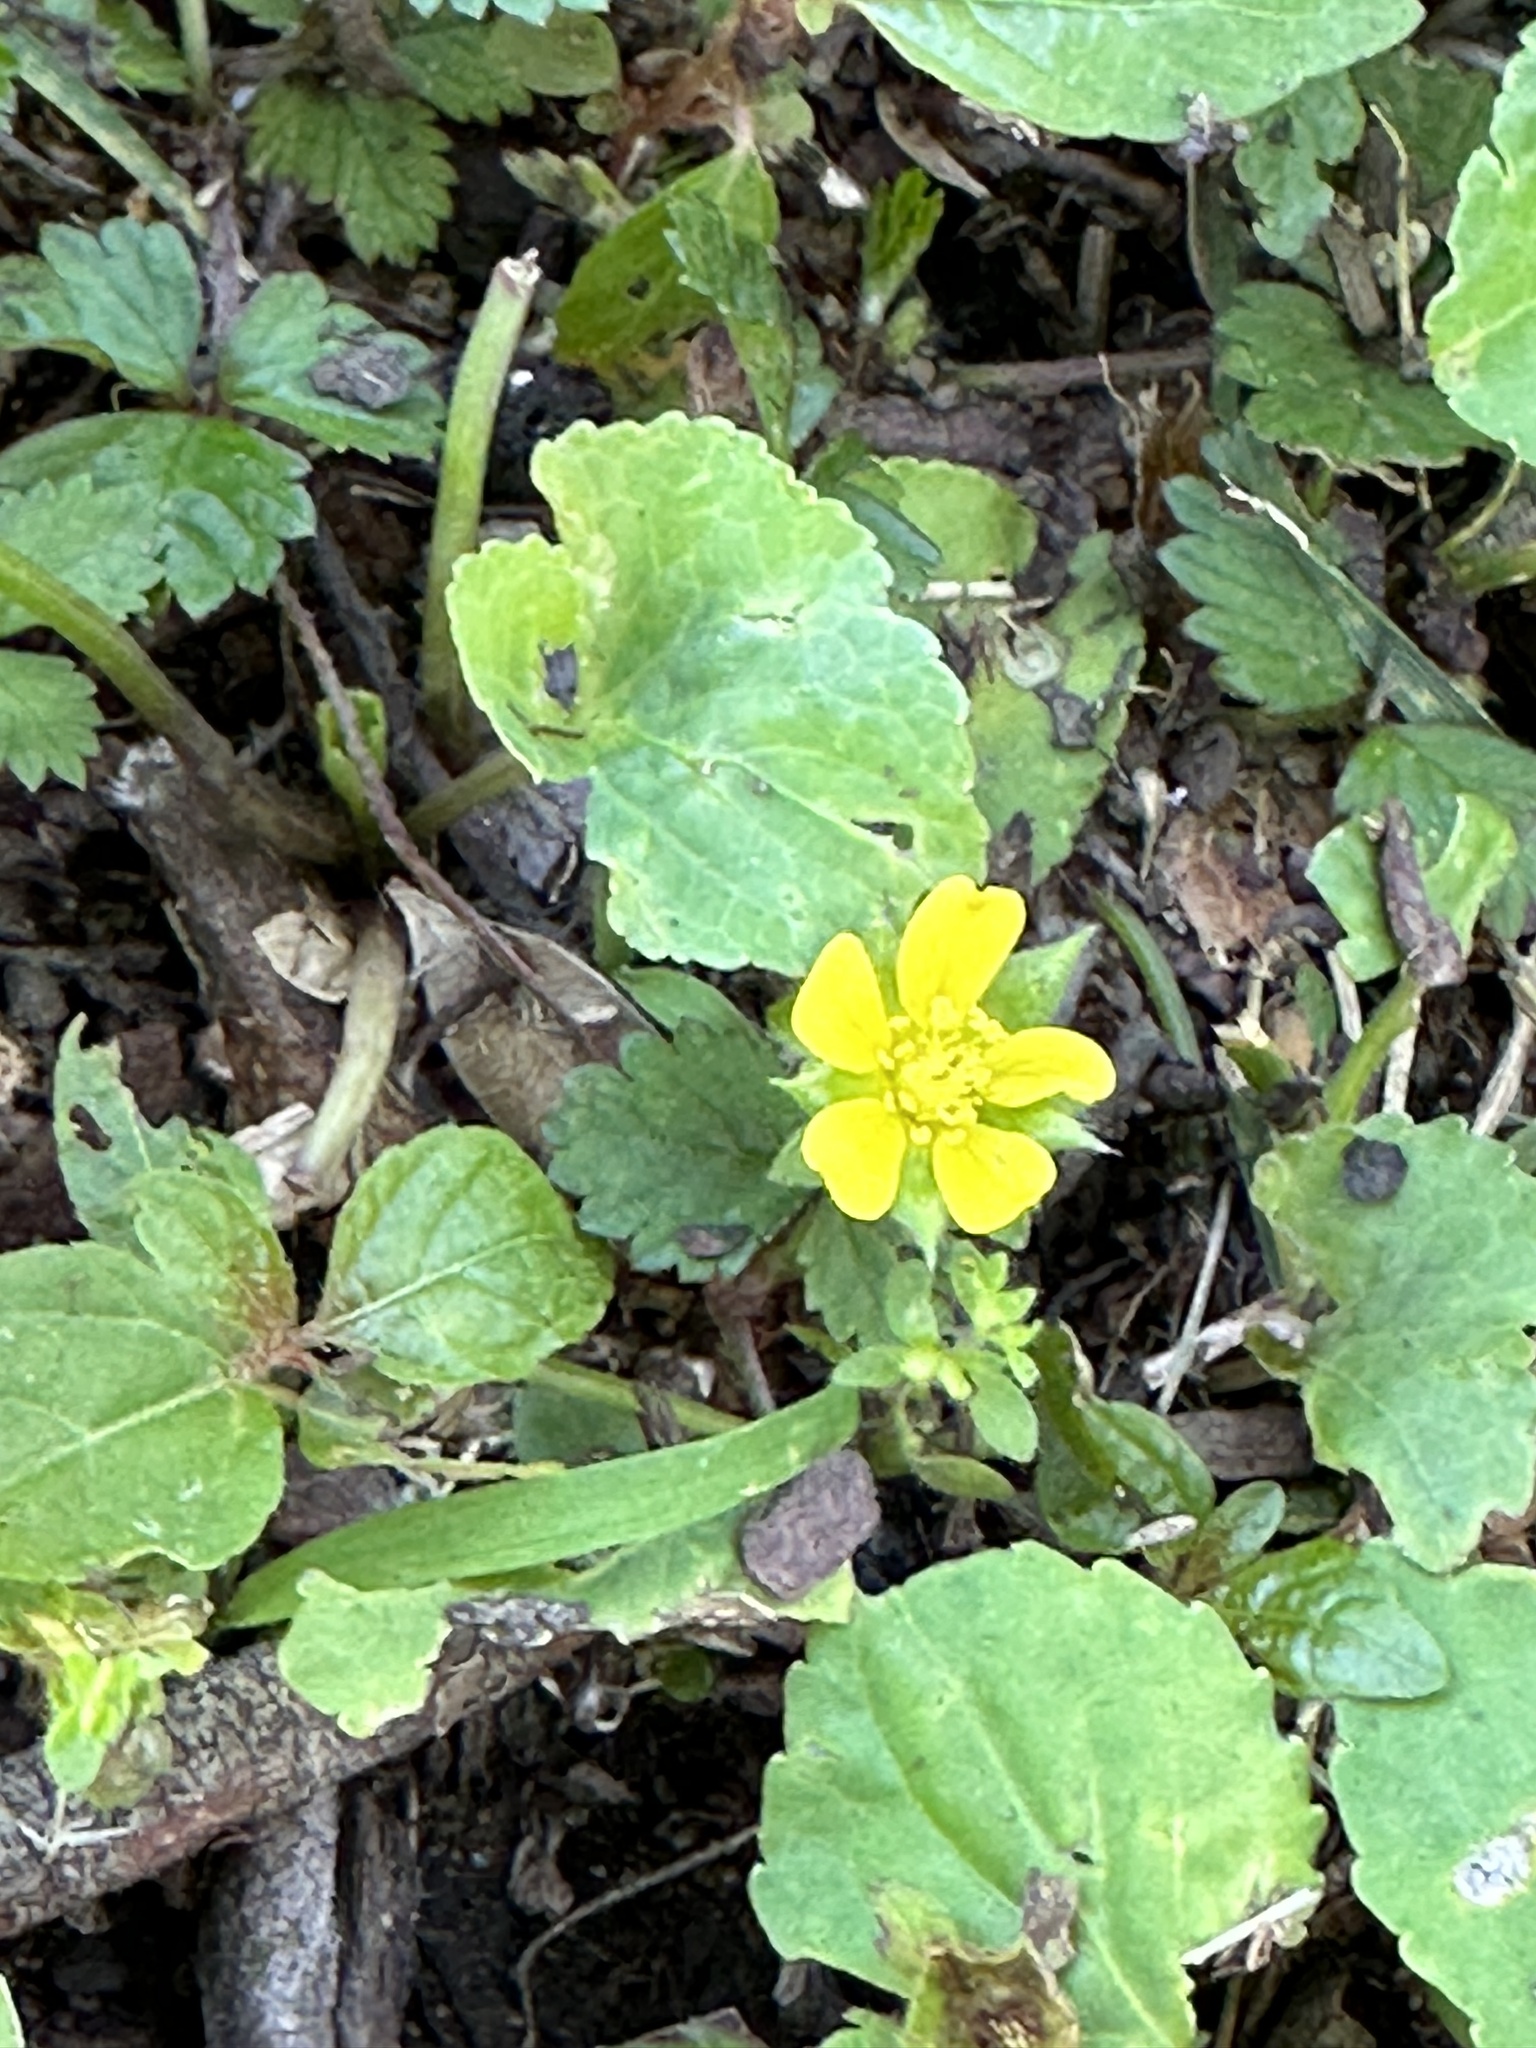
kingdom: Plantae
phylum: Tracheophyta
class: Magnoliopsida
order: Rosales
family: Rosaceae
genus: Potentilla
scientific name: Potentilla indica
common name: Yellow-flowered strawberry
